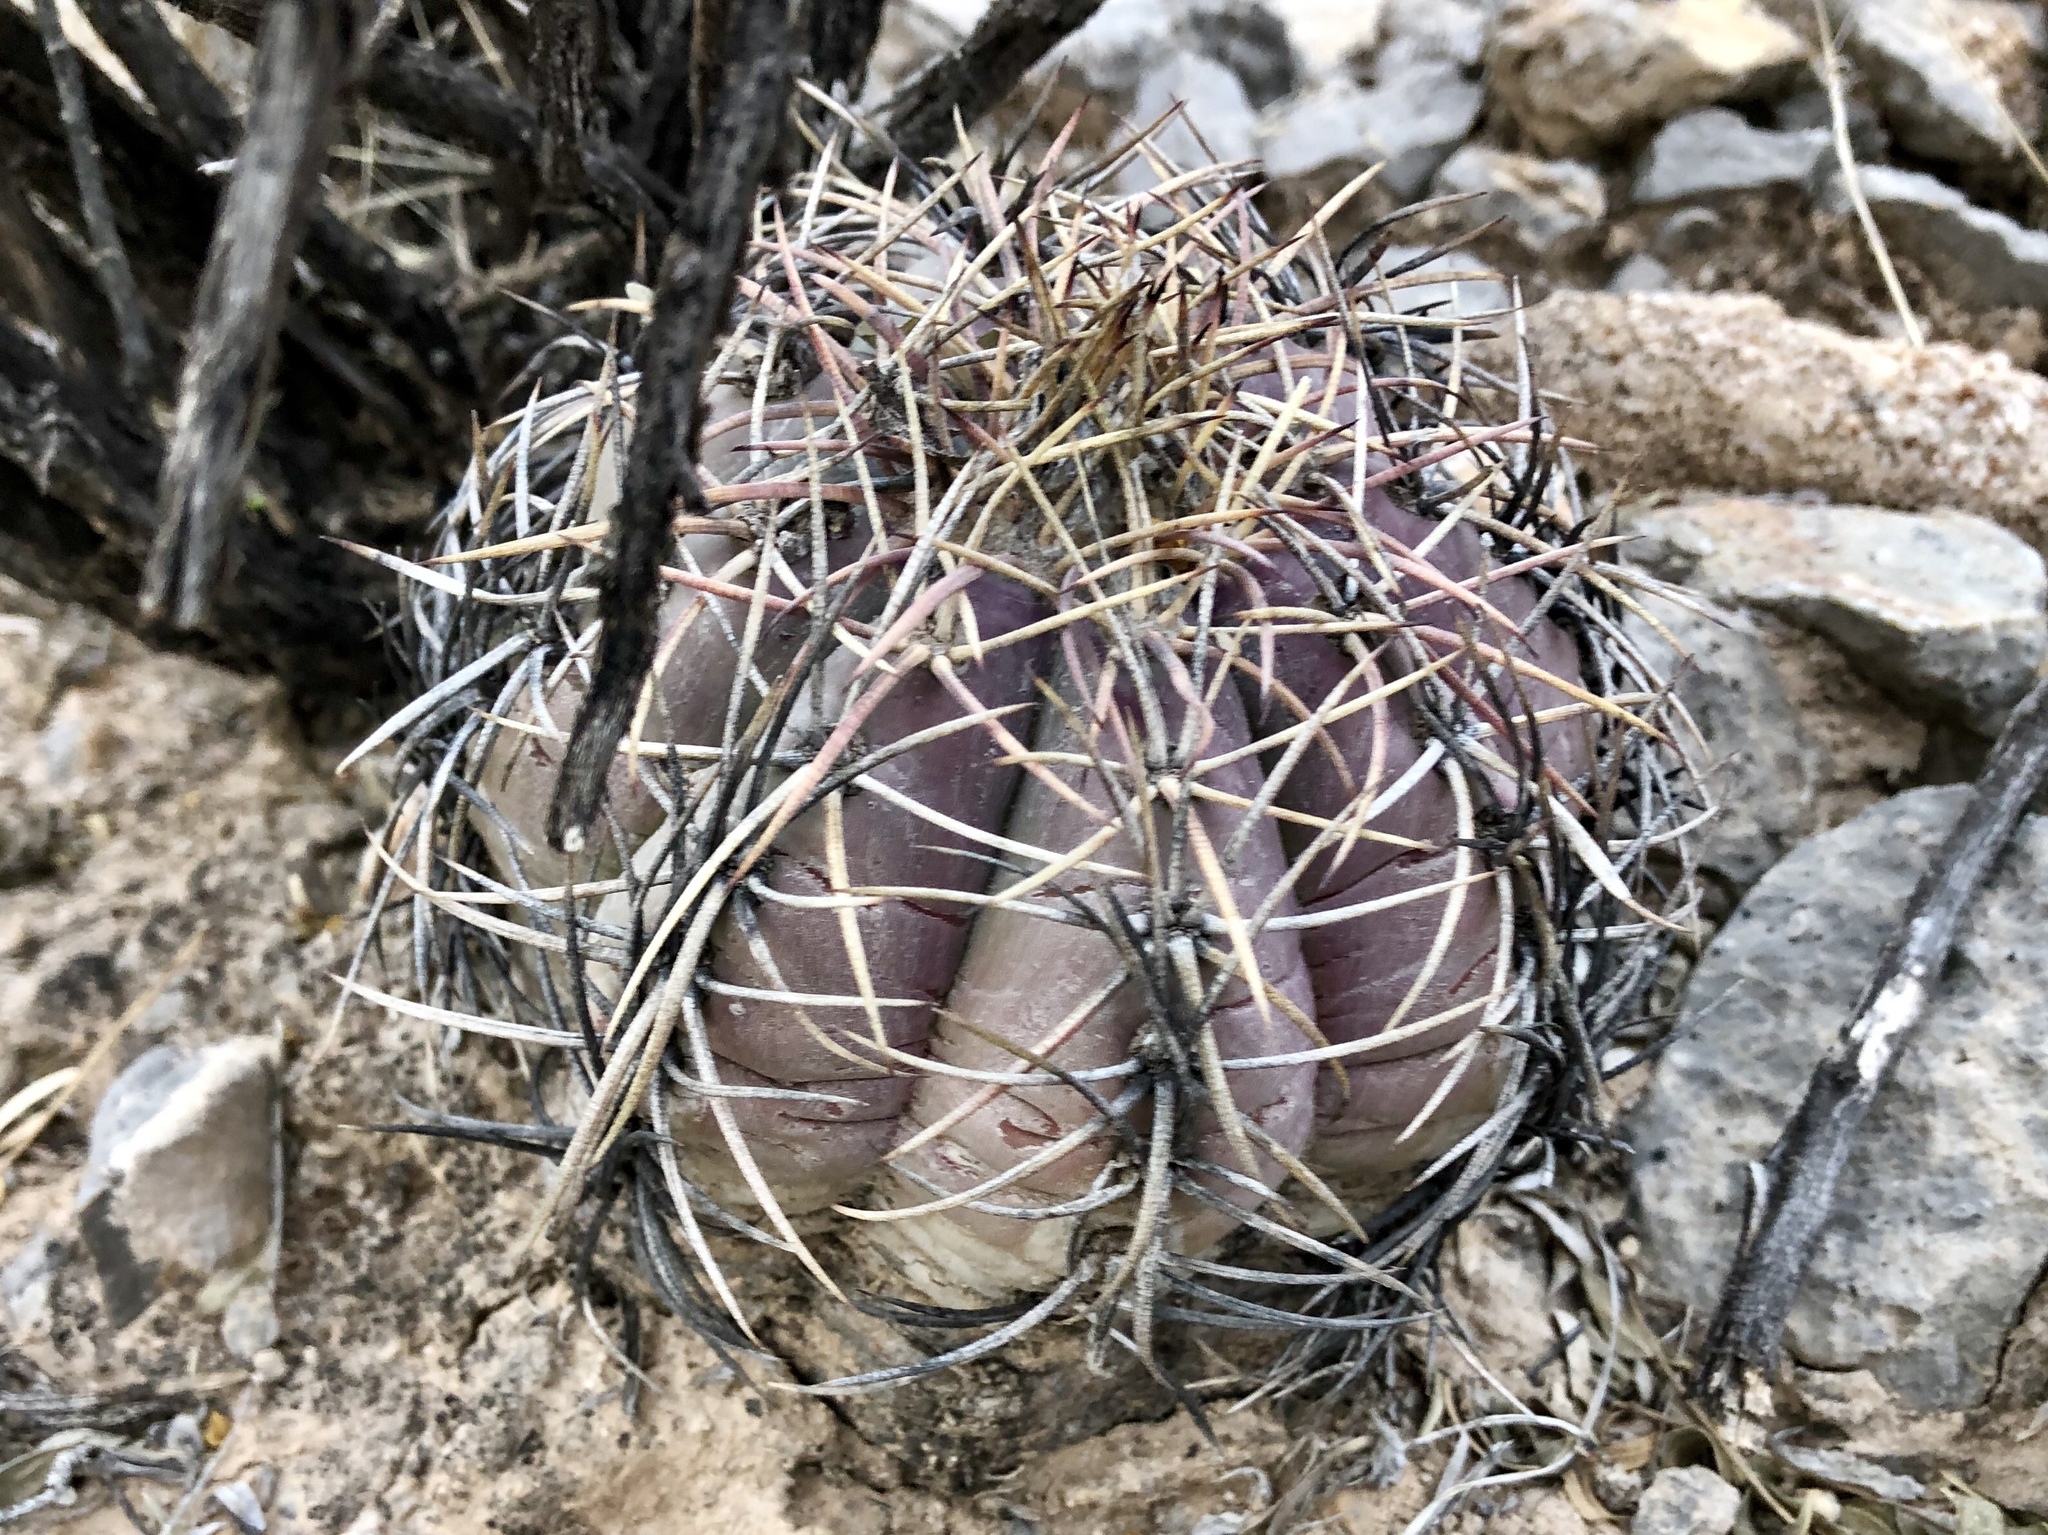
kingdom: Plantae
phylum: Tracheophyta
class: Magnoliopsida
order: Caryophyllales
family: Cactaceae
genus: Echinocactus
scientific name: Echinocactus horizonthalonius
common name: Devilshead
